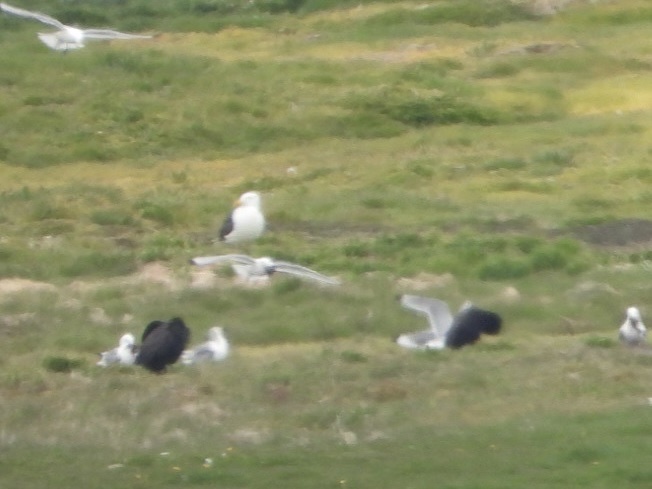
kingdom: Animalia
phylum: Chordata
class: Aves
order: Charadriiformes
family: Laridae
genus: Larus
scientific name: Larus marinus
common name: Great black-backed gull
